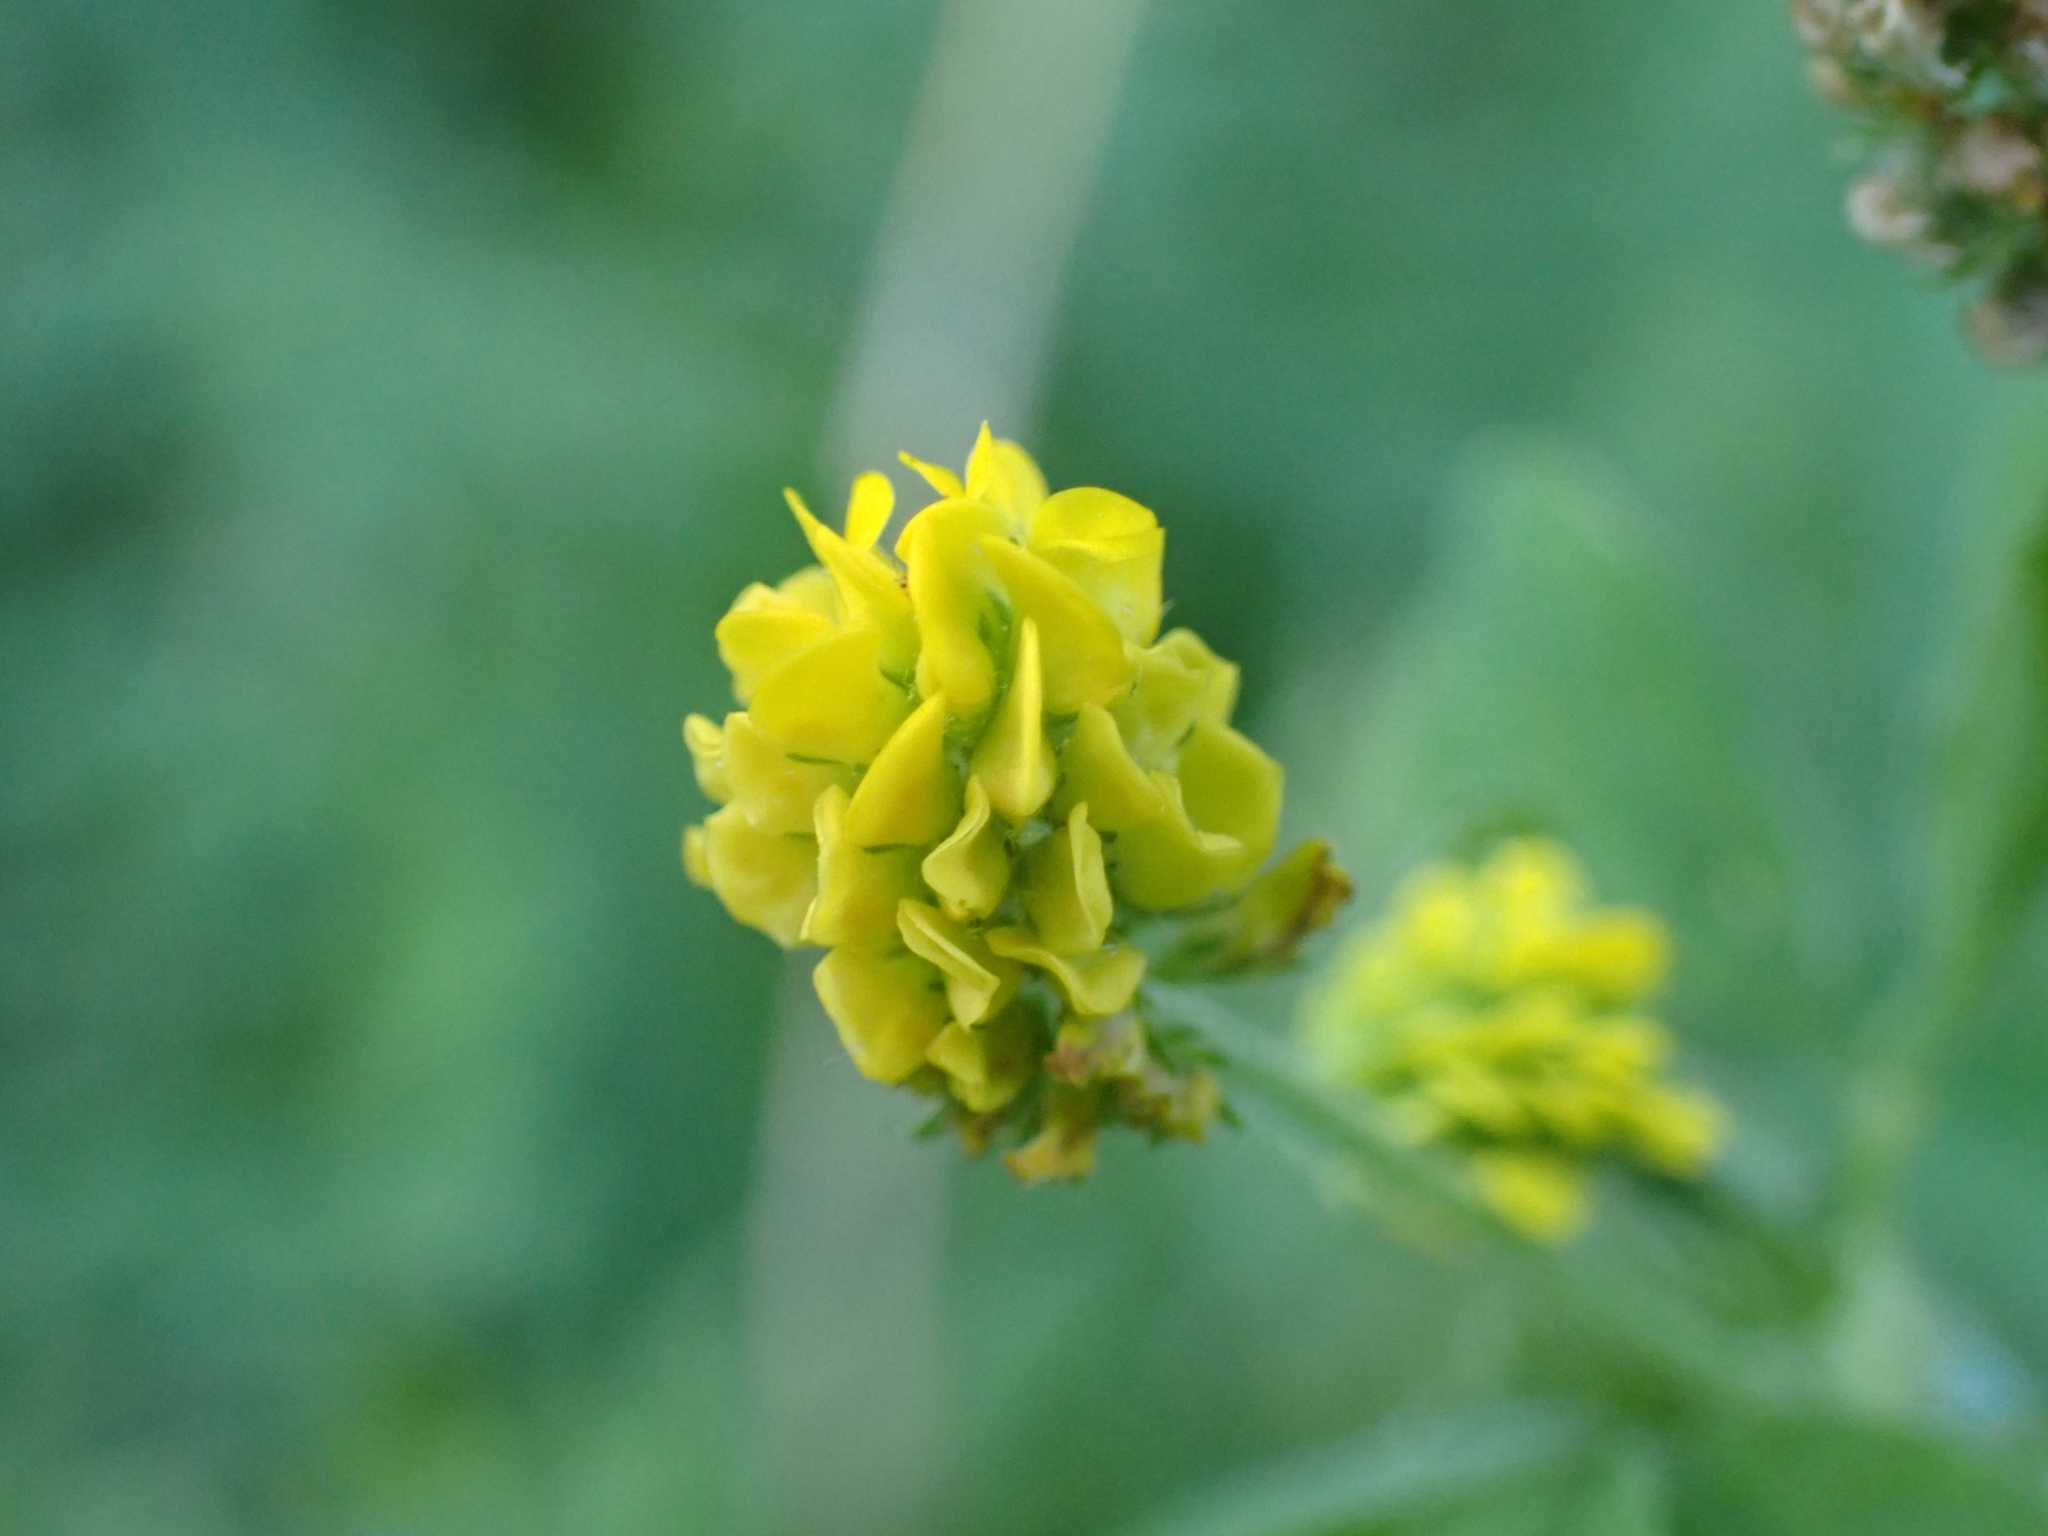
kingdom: Plantae
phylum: Tracheophyta
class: Magnoliopsida
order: Fabales
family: Fabaceae
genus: Medicago
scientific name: Medicago lupulina
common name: Black medick
